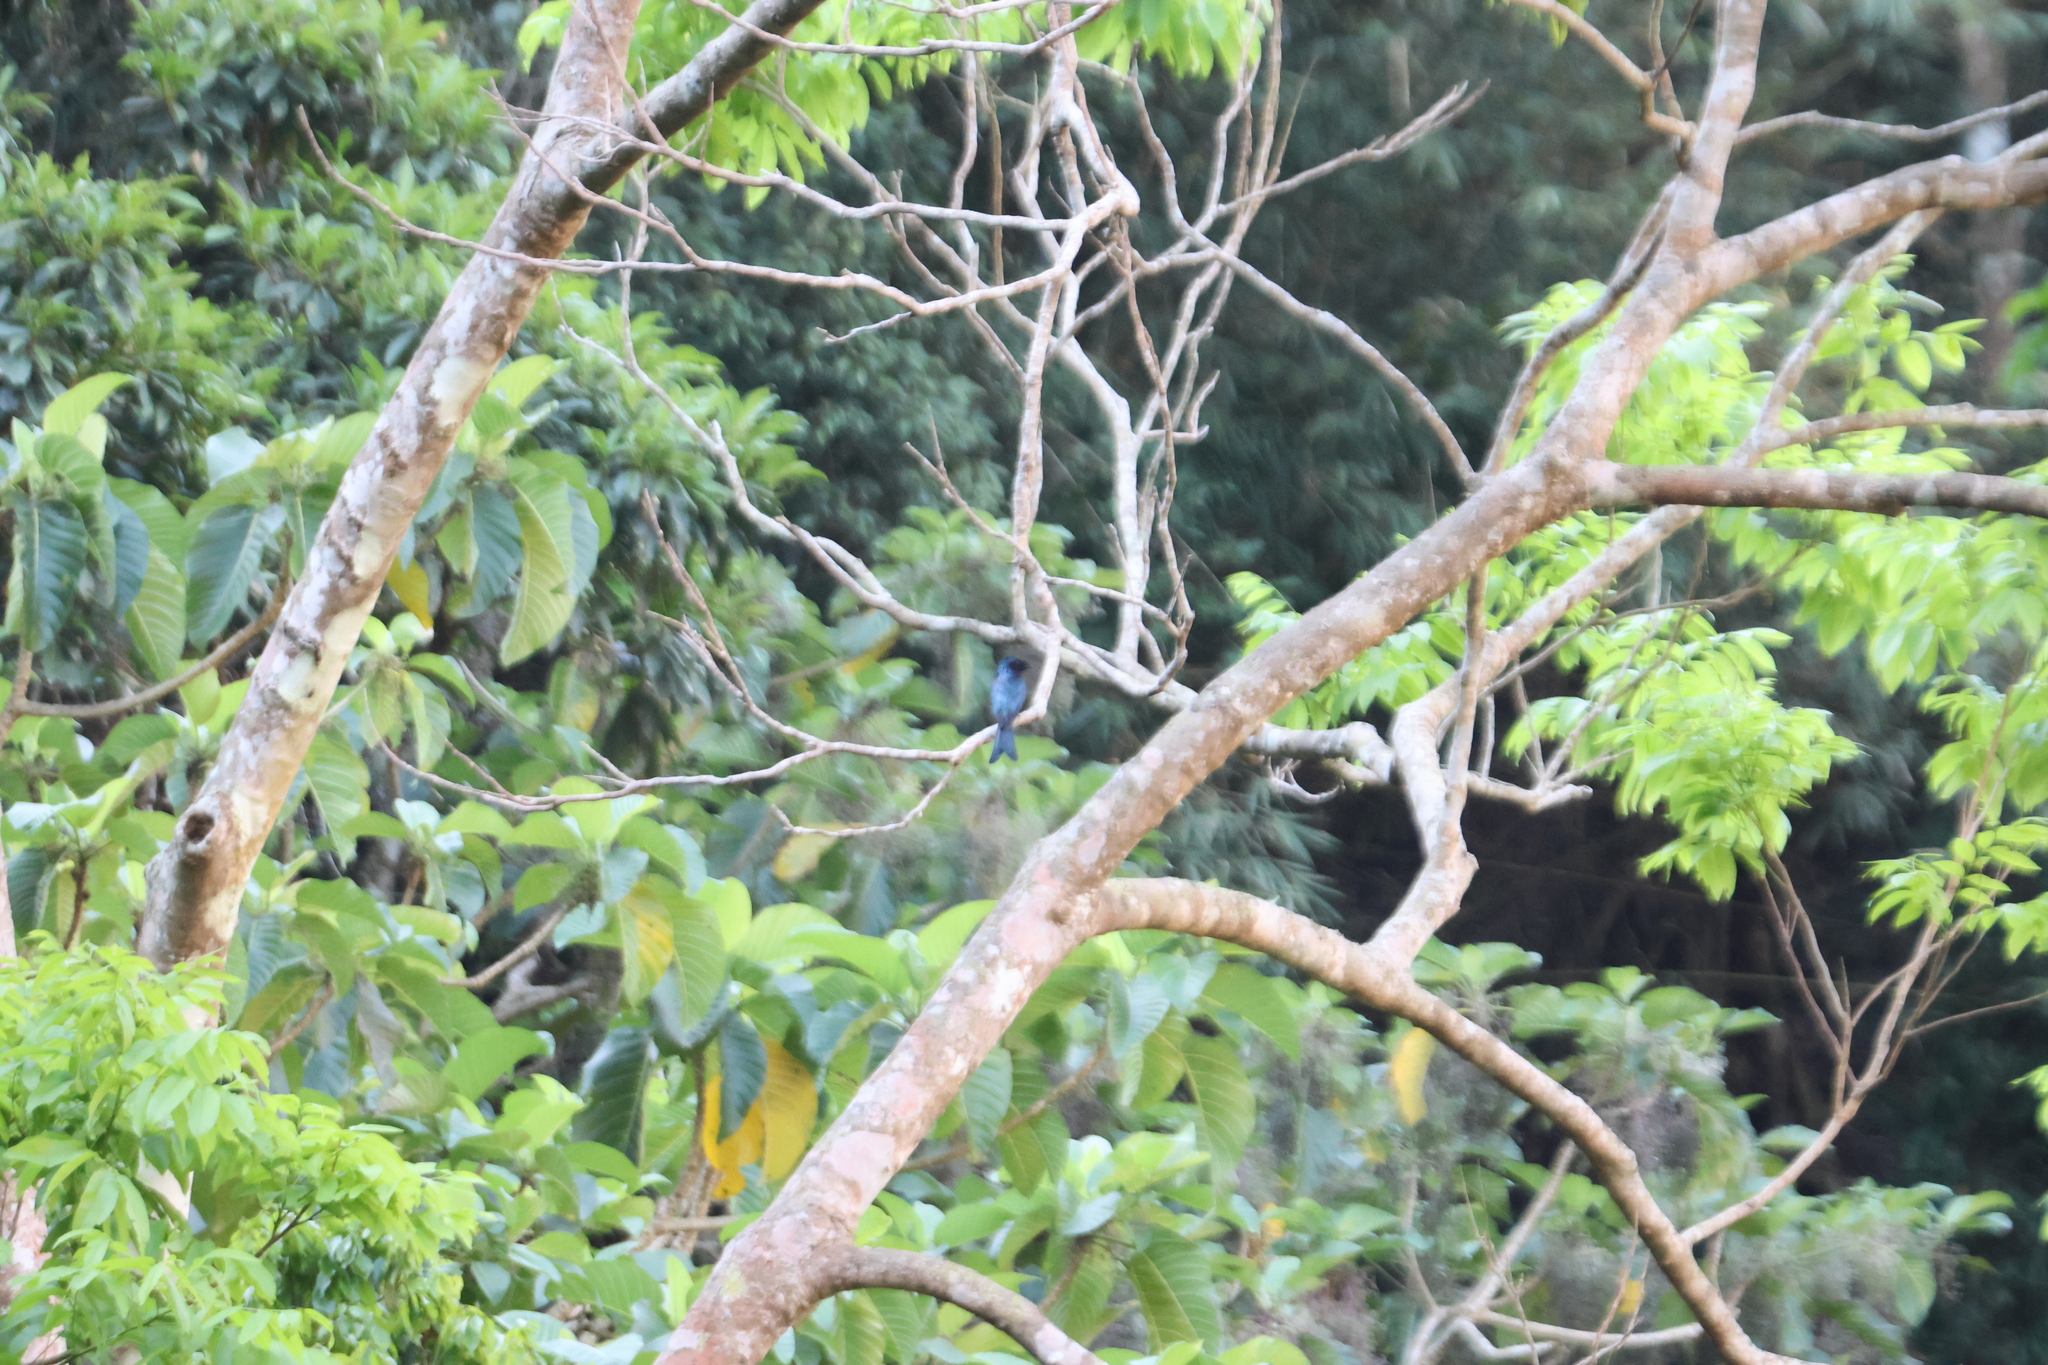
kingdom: Animalia
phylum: Chordata
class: Aves
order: Passeriformes
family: Dicruridae
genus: Dicrurus
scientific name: Dicrurus aeneus
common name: Bronzed drongo
